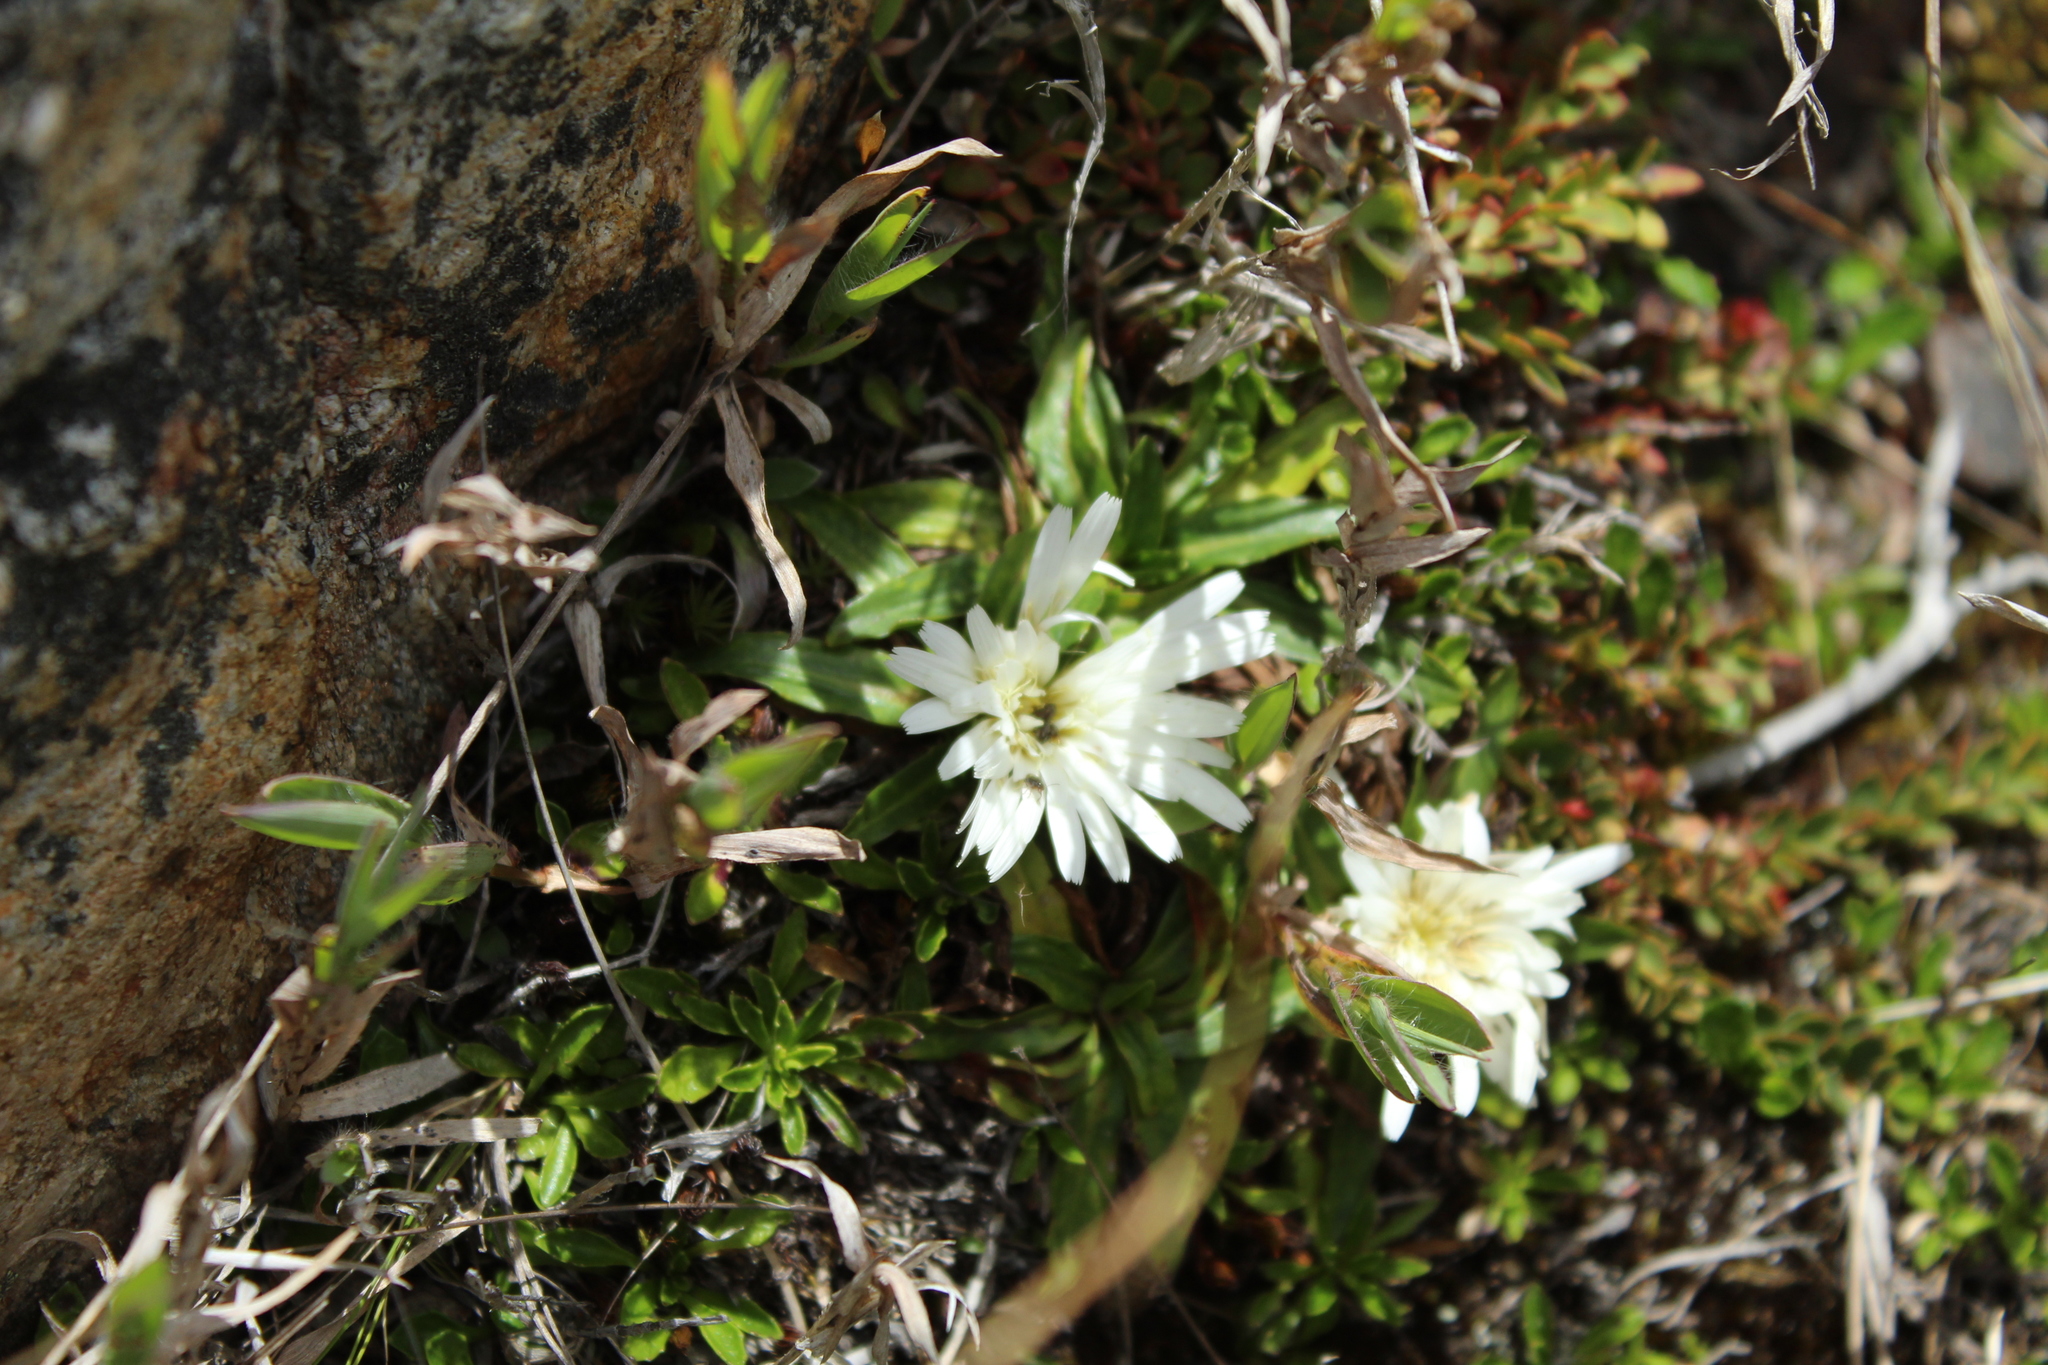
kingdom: Plantae
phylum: Tracheophyta
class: Magnoliopsida
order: Asterales
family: Asteraceae
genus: Hypochaeris
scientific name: Hypochaeris sessiliflora
